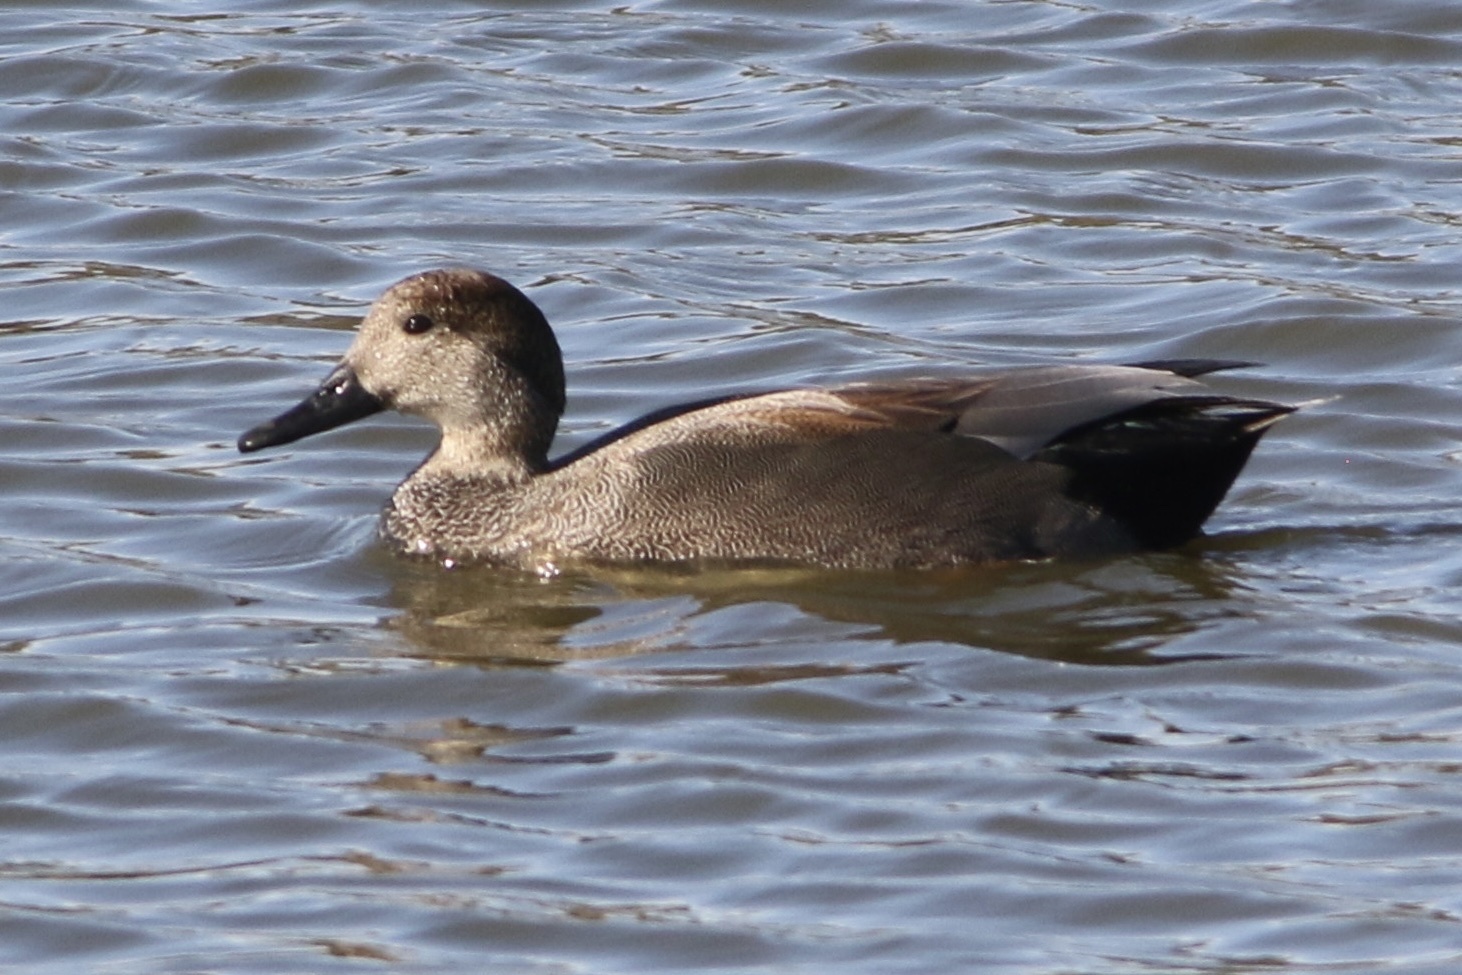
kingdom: Animalia
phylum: Chordata
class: Aves
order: Anseriformes
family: Anatidae
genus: Mareca
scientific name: Mareca strepera
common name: Gadwall
